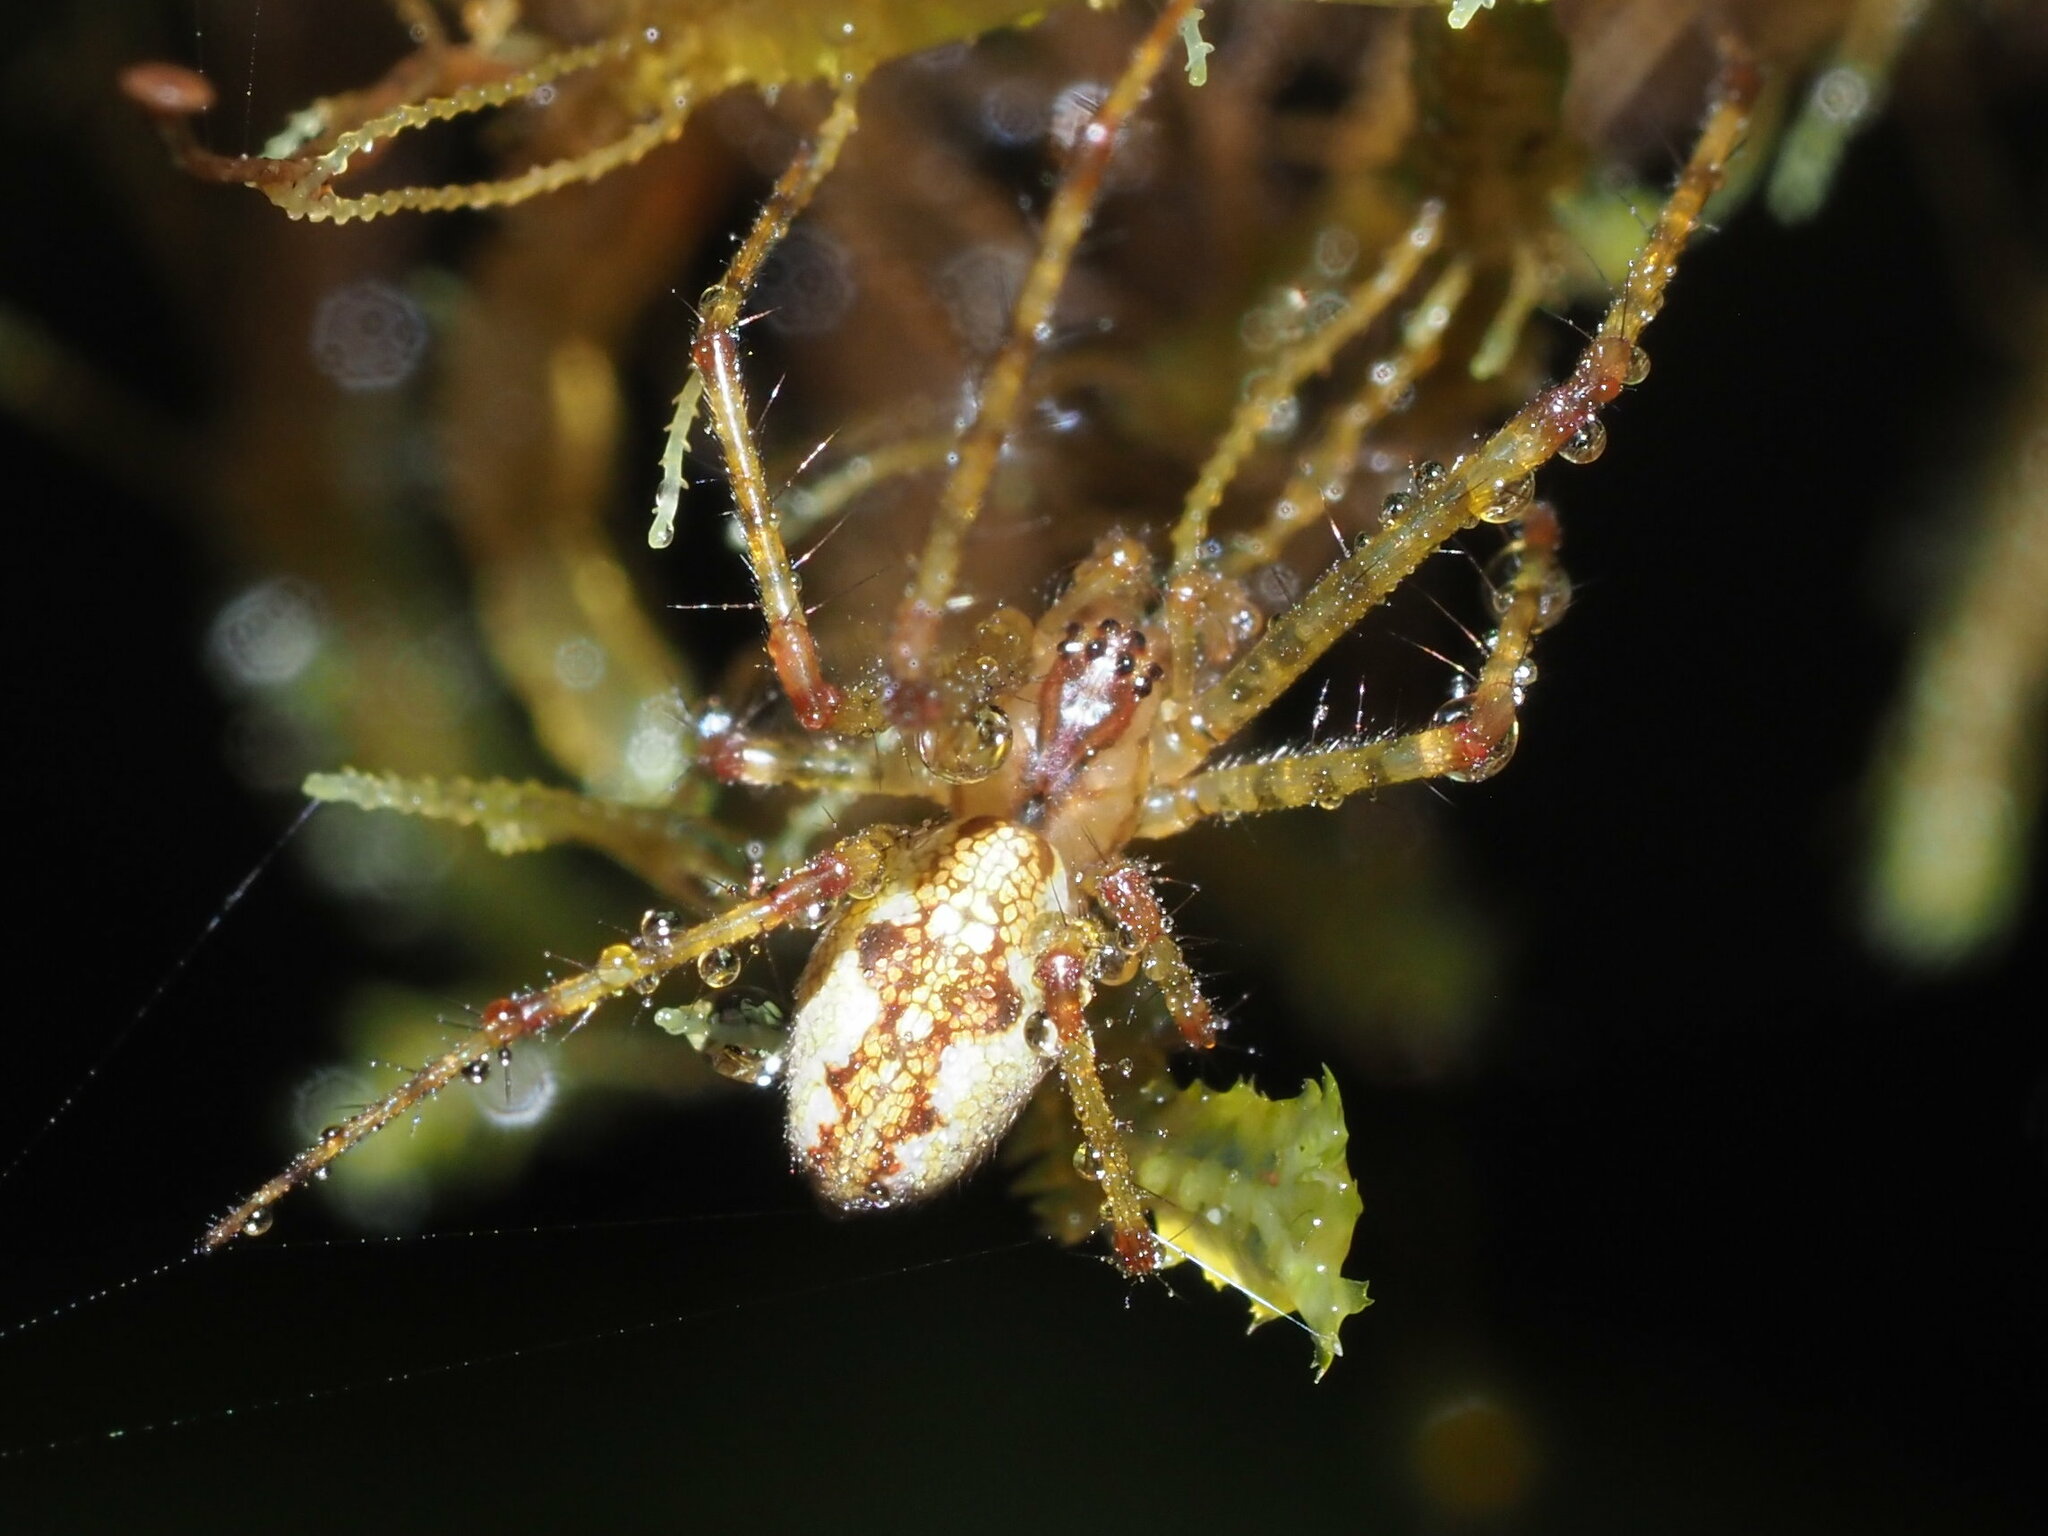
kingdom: Animalia
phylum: Arthropoda
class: Arachnida
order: Araneae
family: Tetragnathidae
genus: Tetragnatha
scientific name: Tetragnatha pilosa
